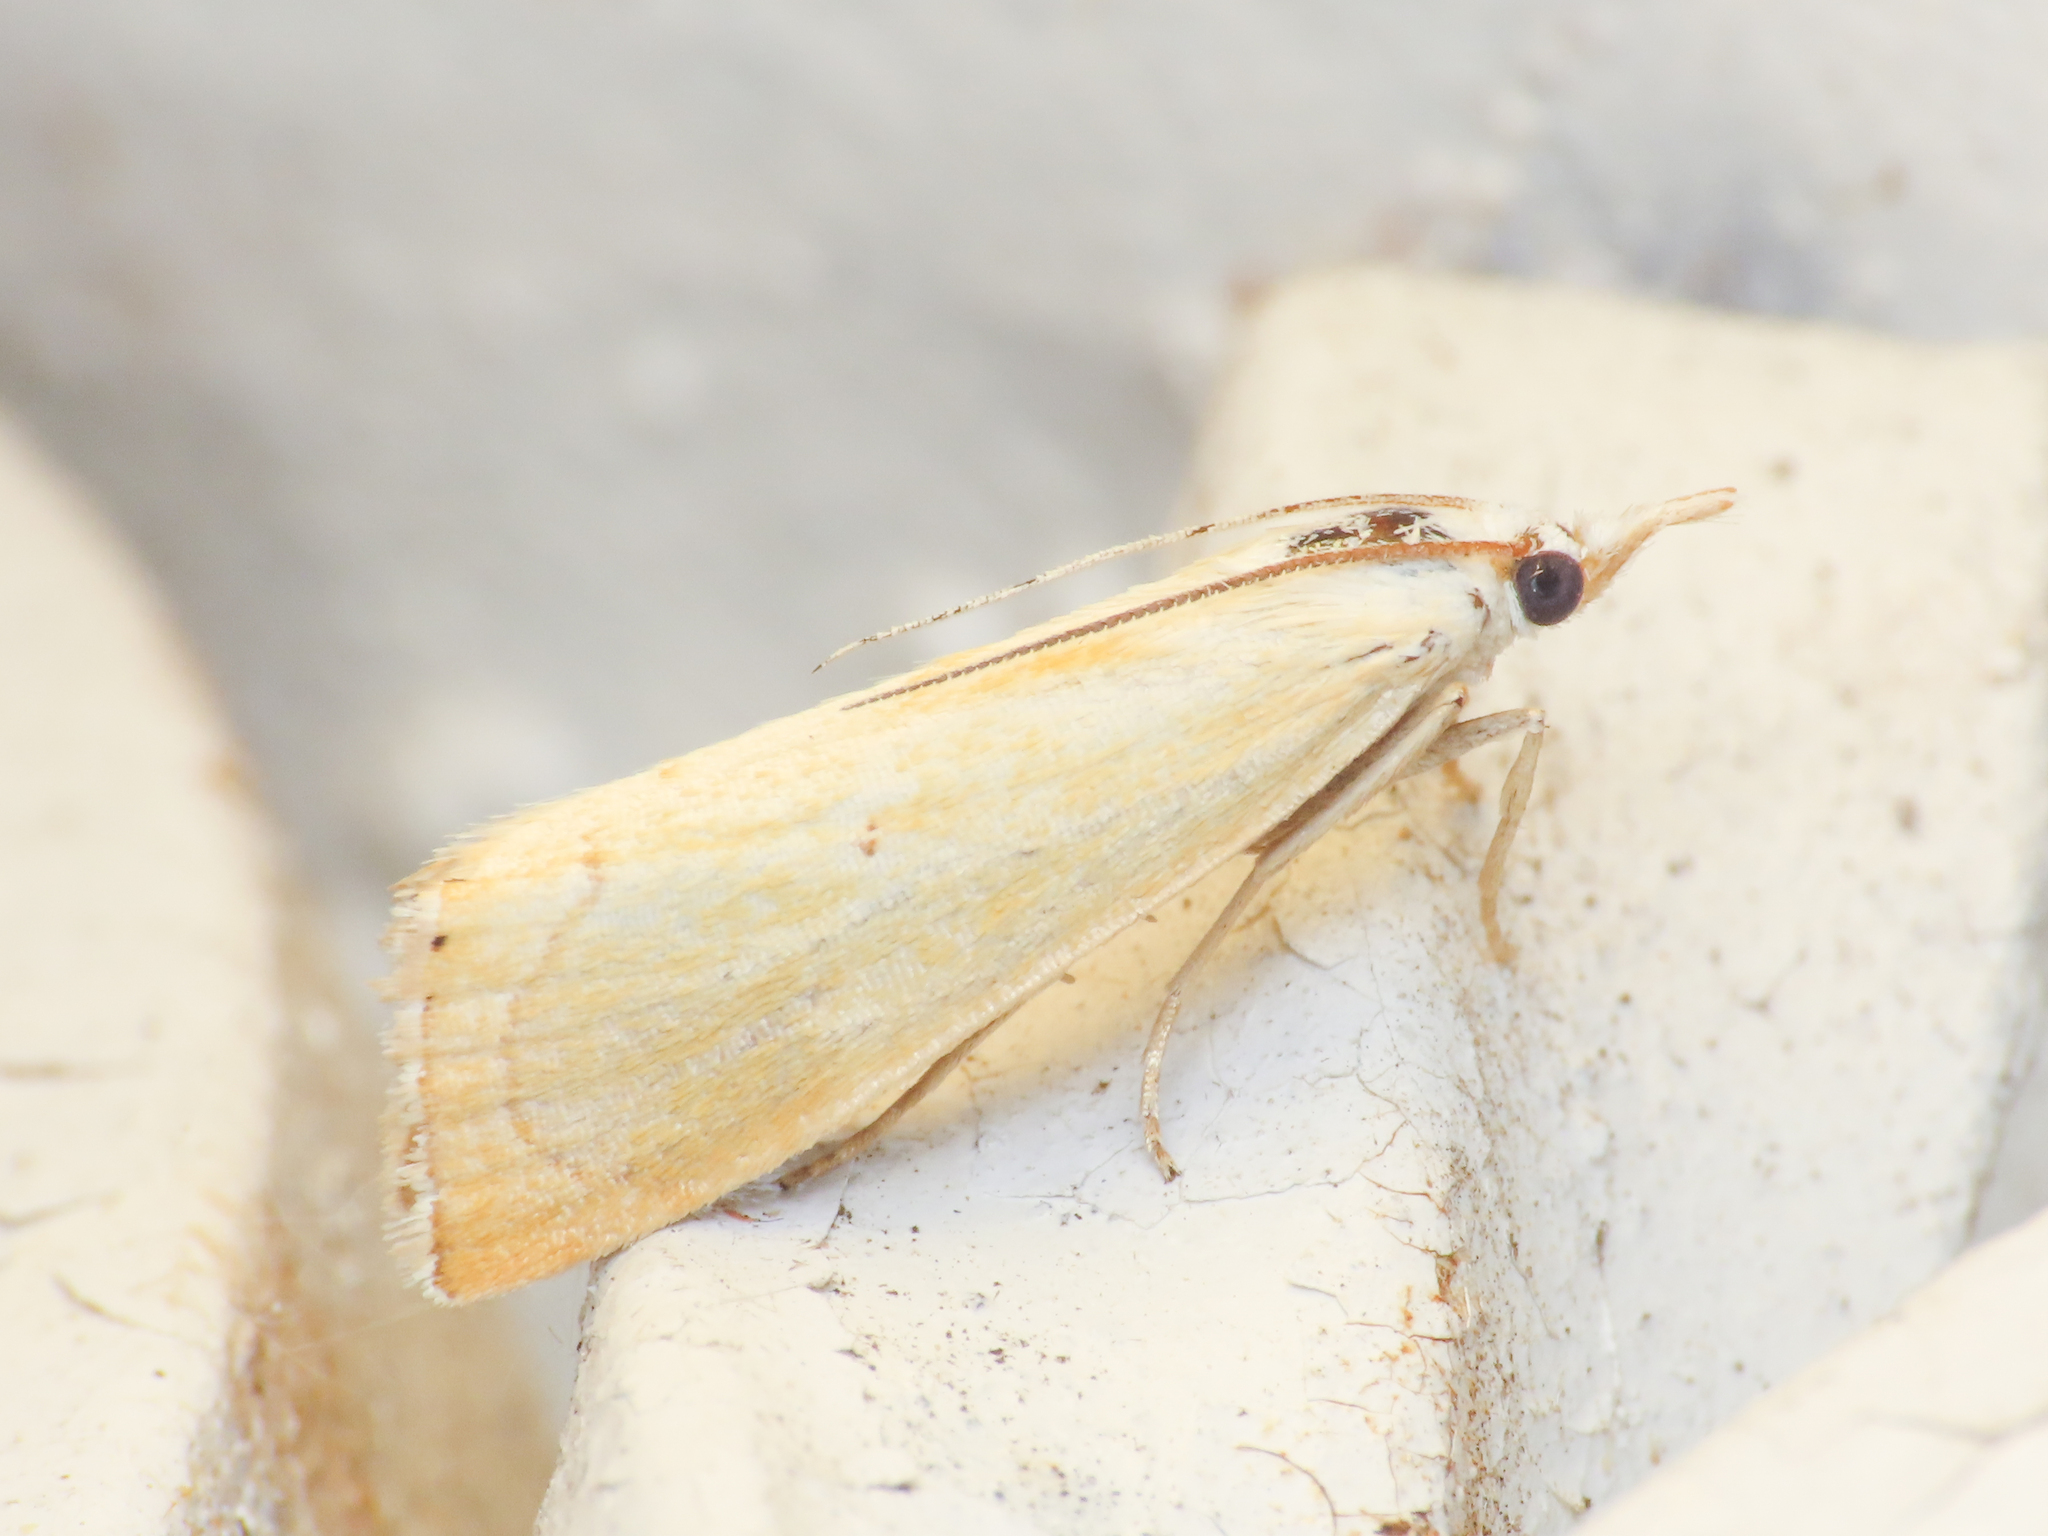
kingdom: Animalia
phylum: Arthropoda
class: Insecta
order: Lepidoptera
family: Crambidae
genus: Xanthocrambus
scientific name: Xanthocrambus saxonellus
